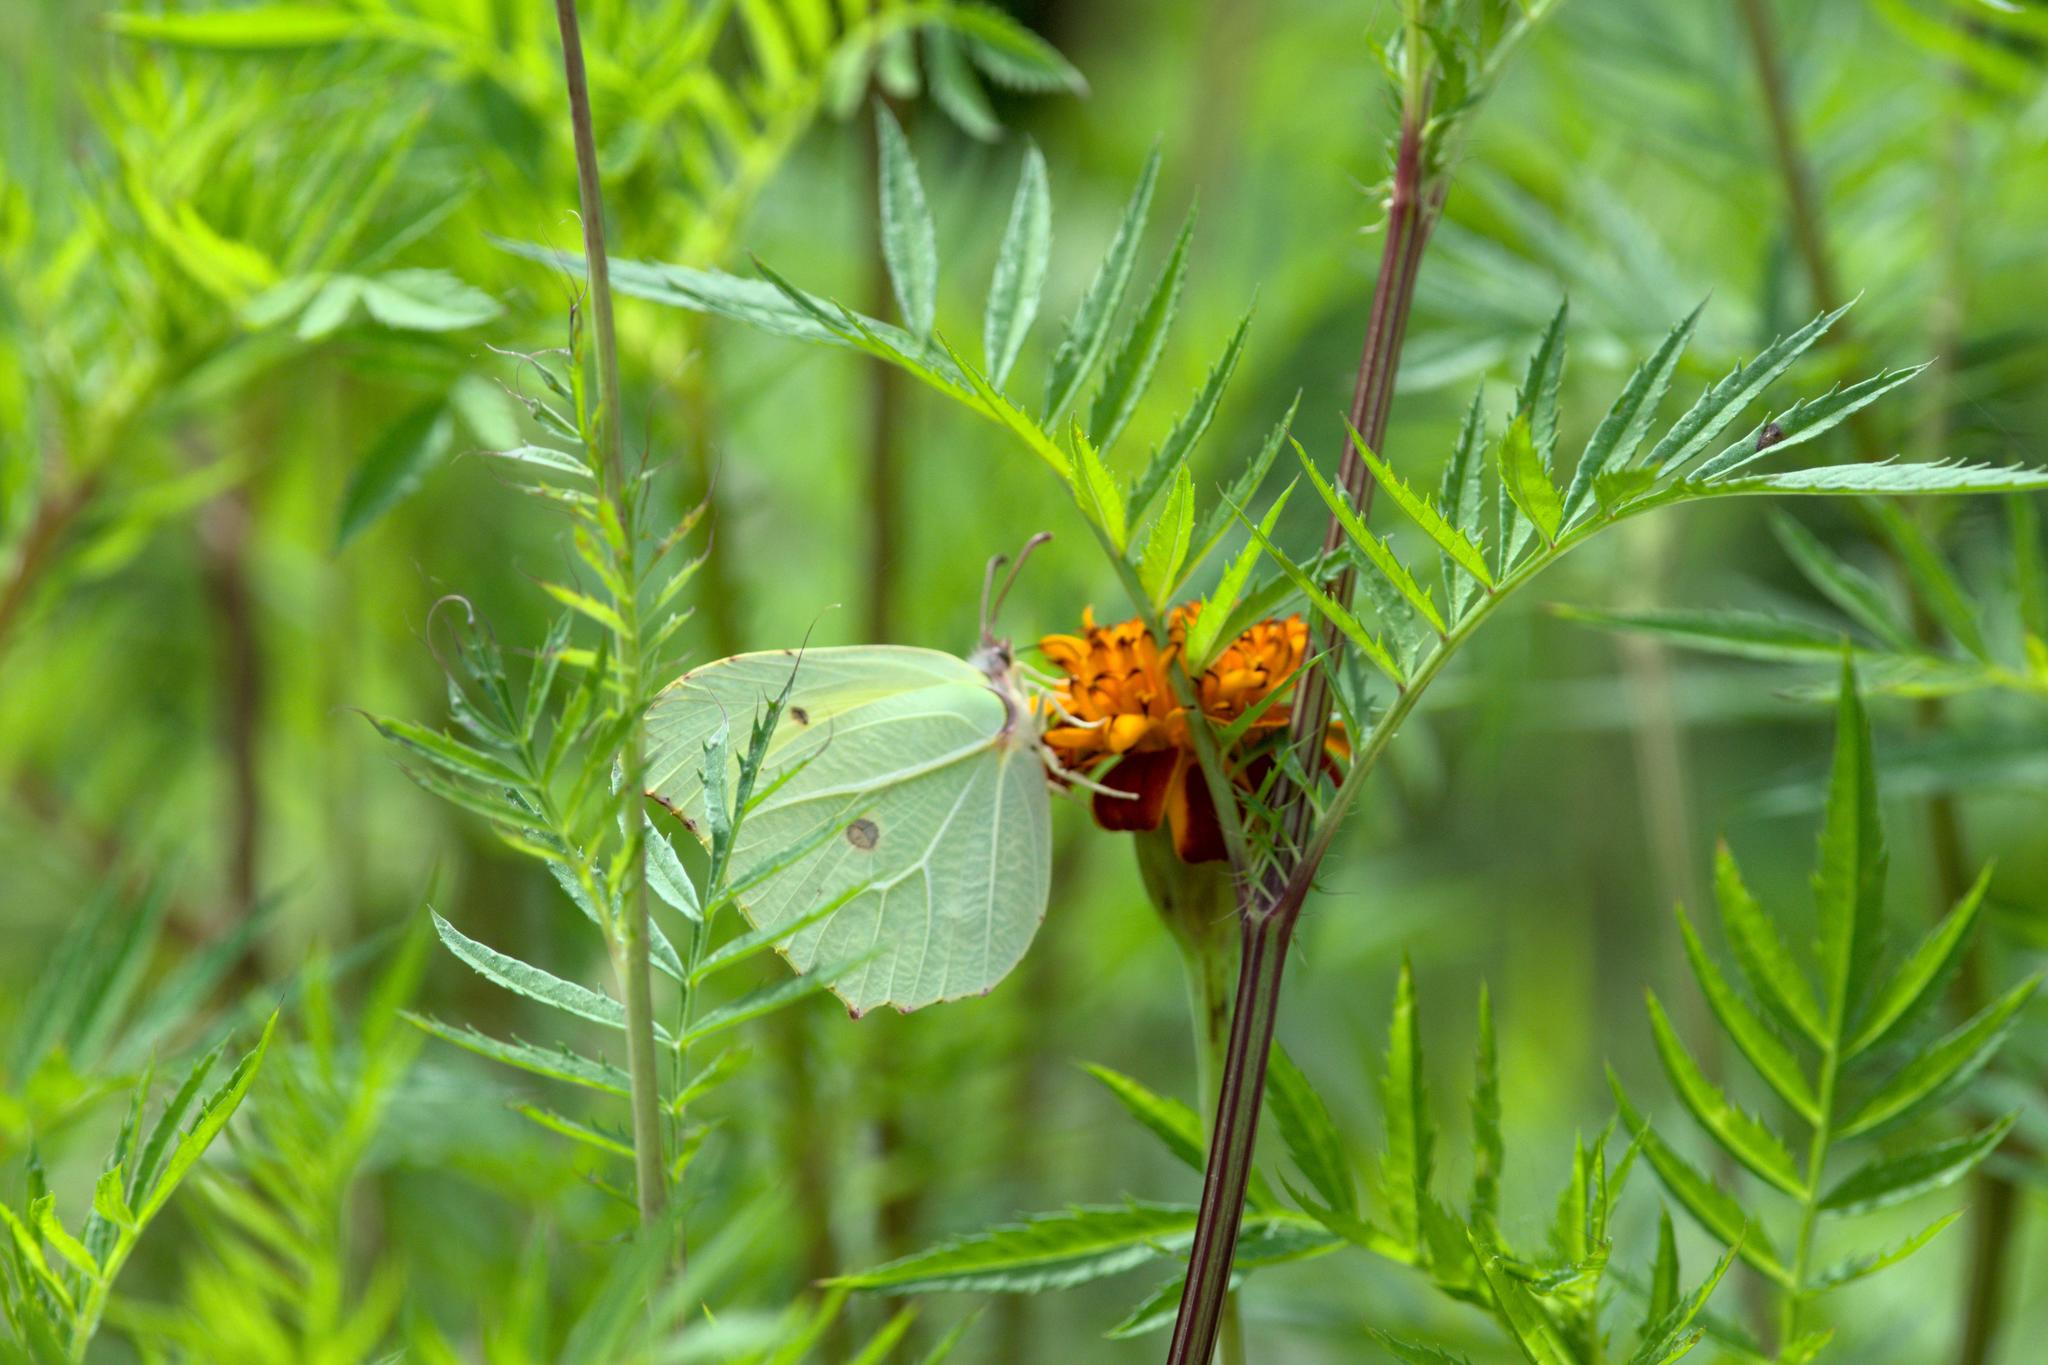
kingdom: Animalia
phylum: Arthropoda
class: Insecta
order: Lepidoptera
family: Pieridae
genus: Gonepteryx
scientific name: Gonepteryx
